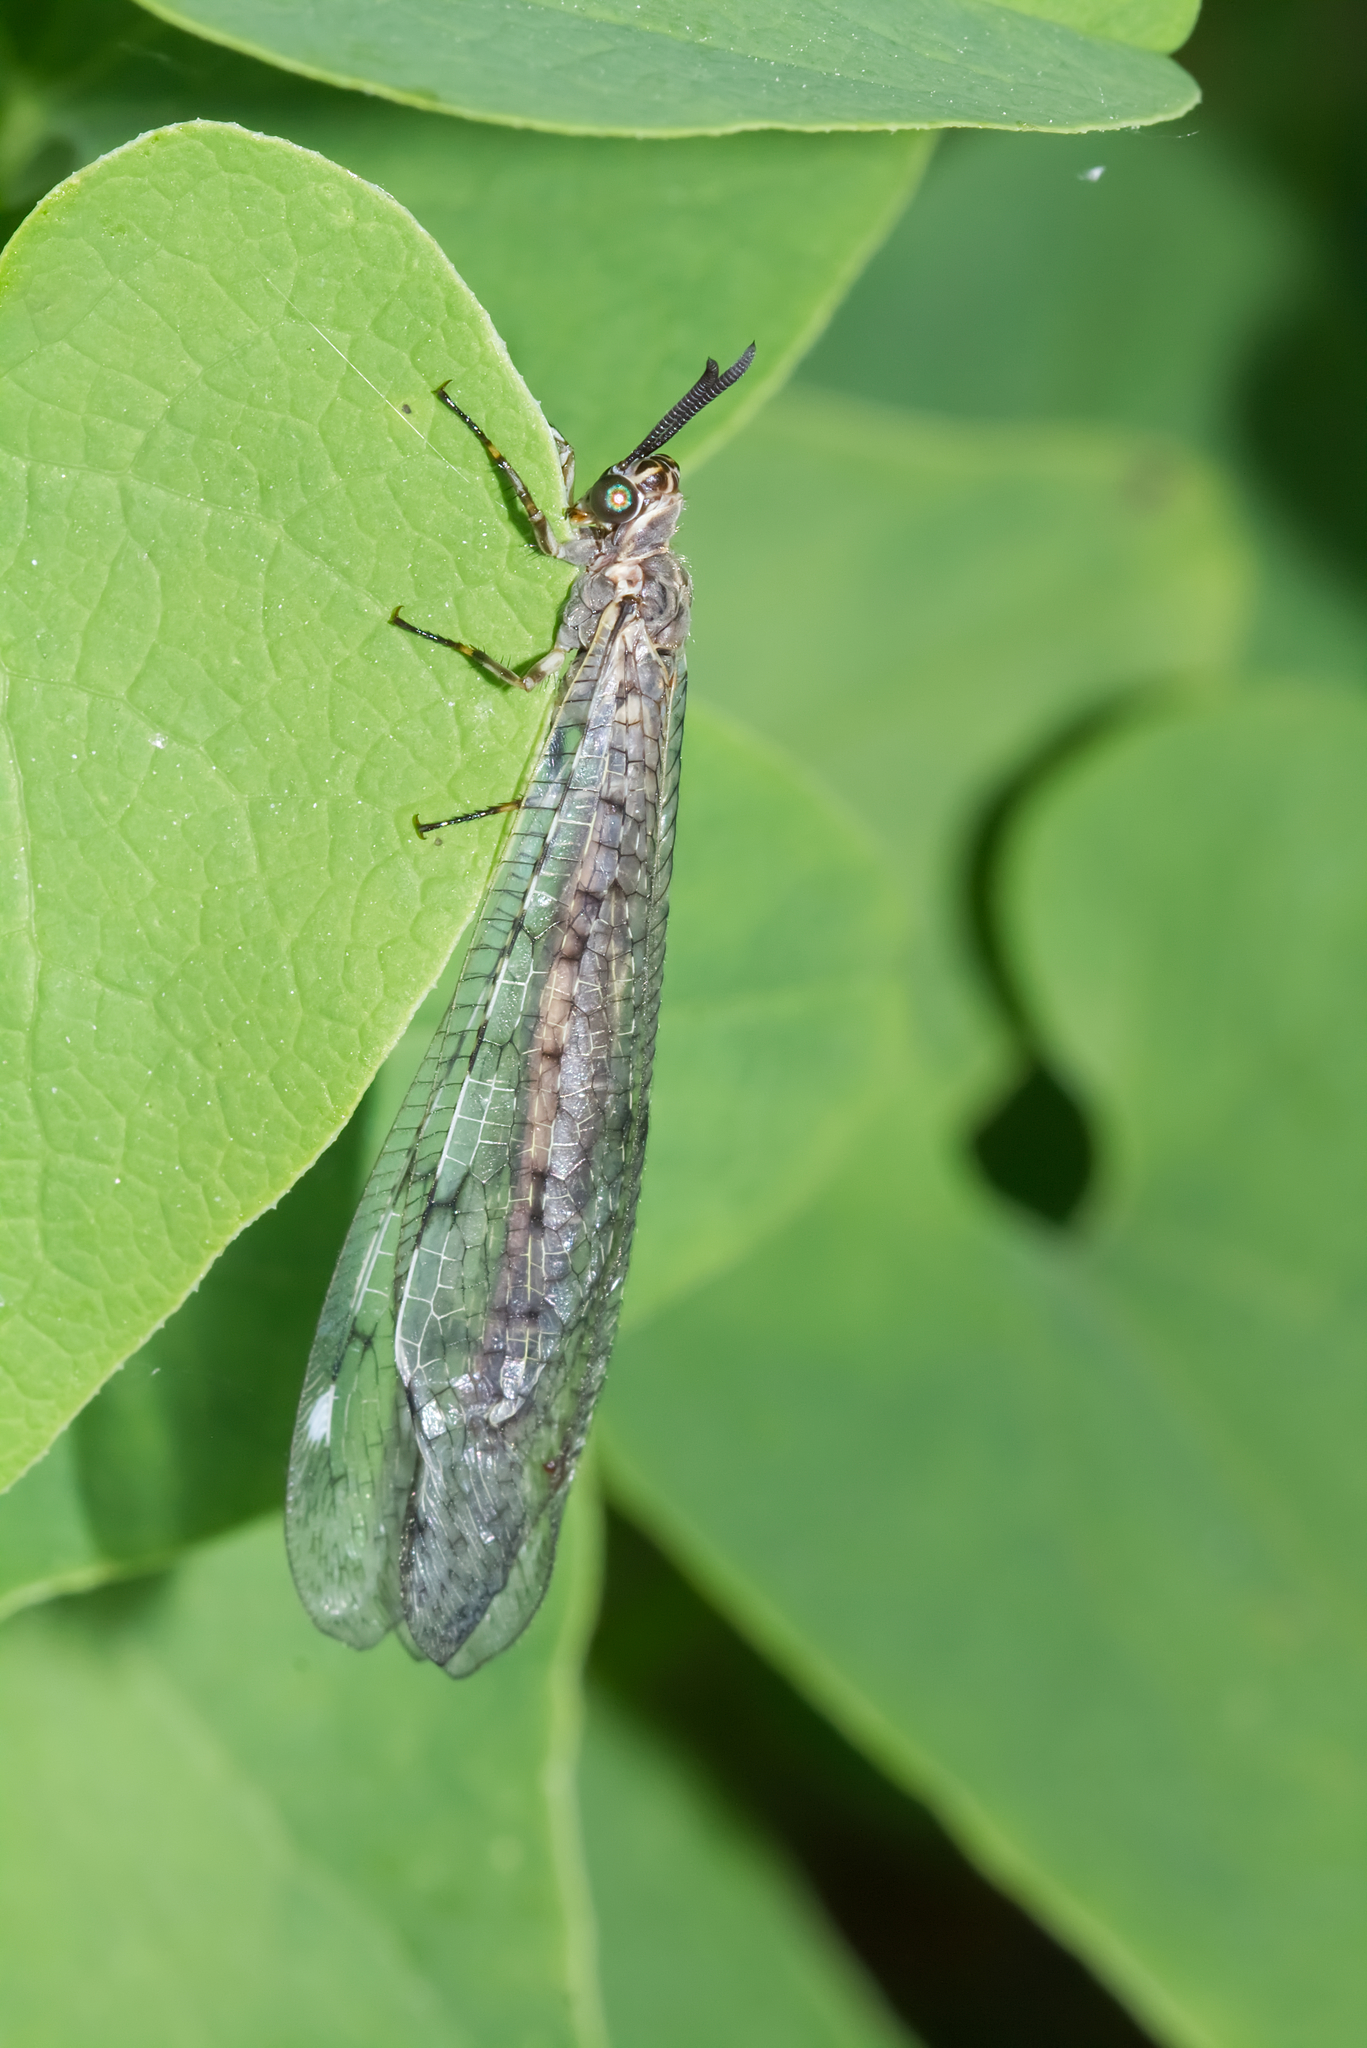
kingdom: Animalia
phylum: Arthropoda
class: Insecta
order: Neuroptera
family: Myrmeleontidae
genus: Euroleon
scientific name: Euroleon nostras
